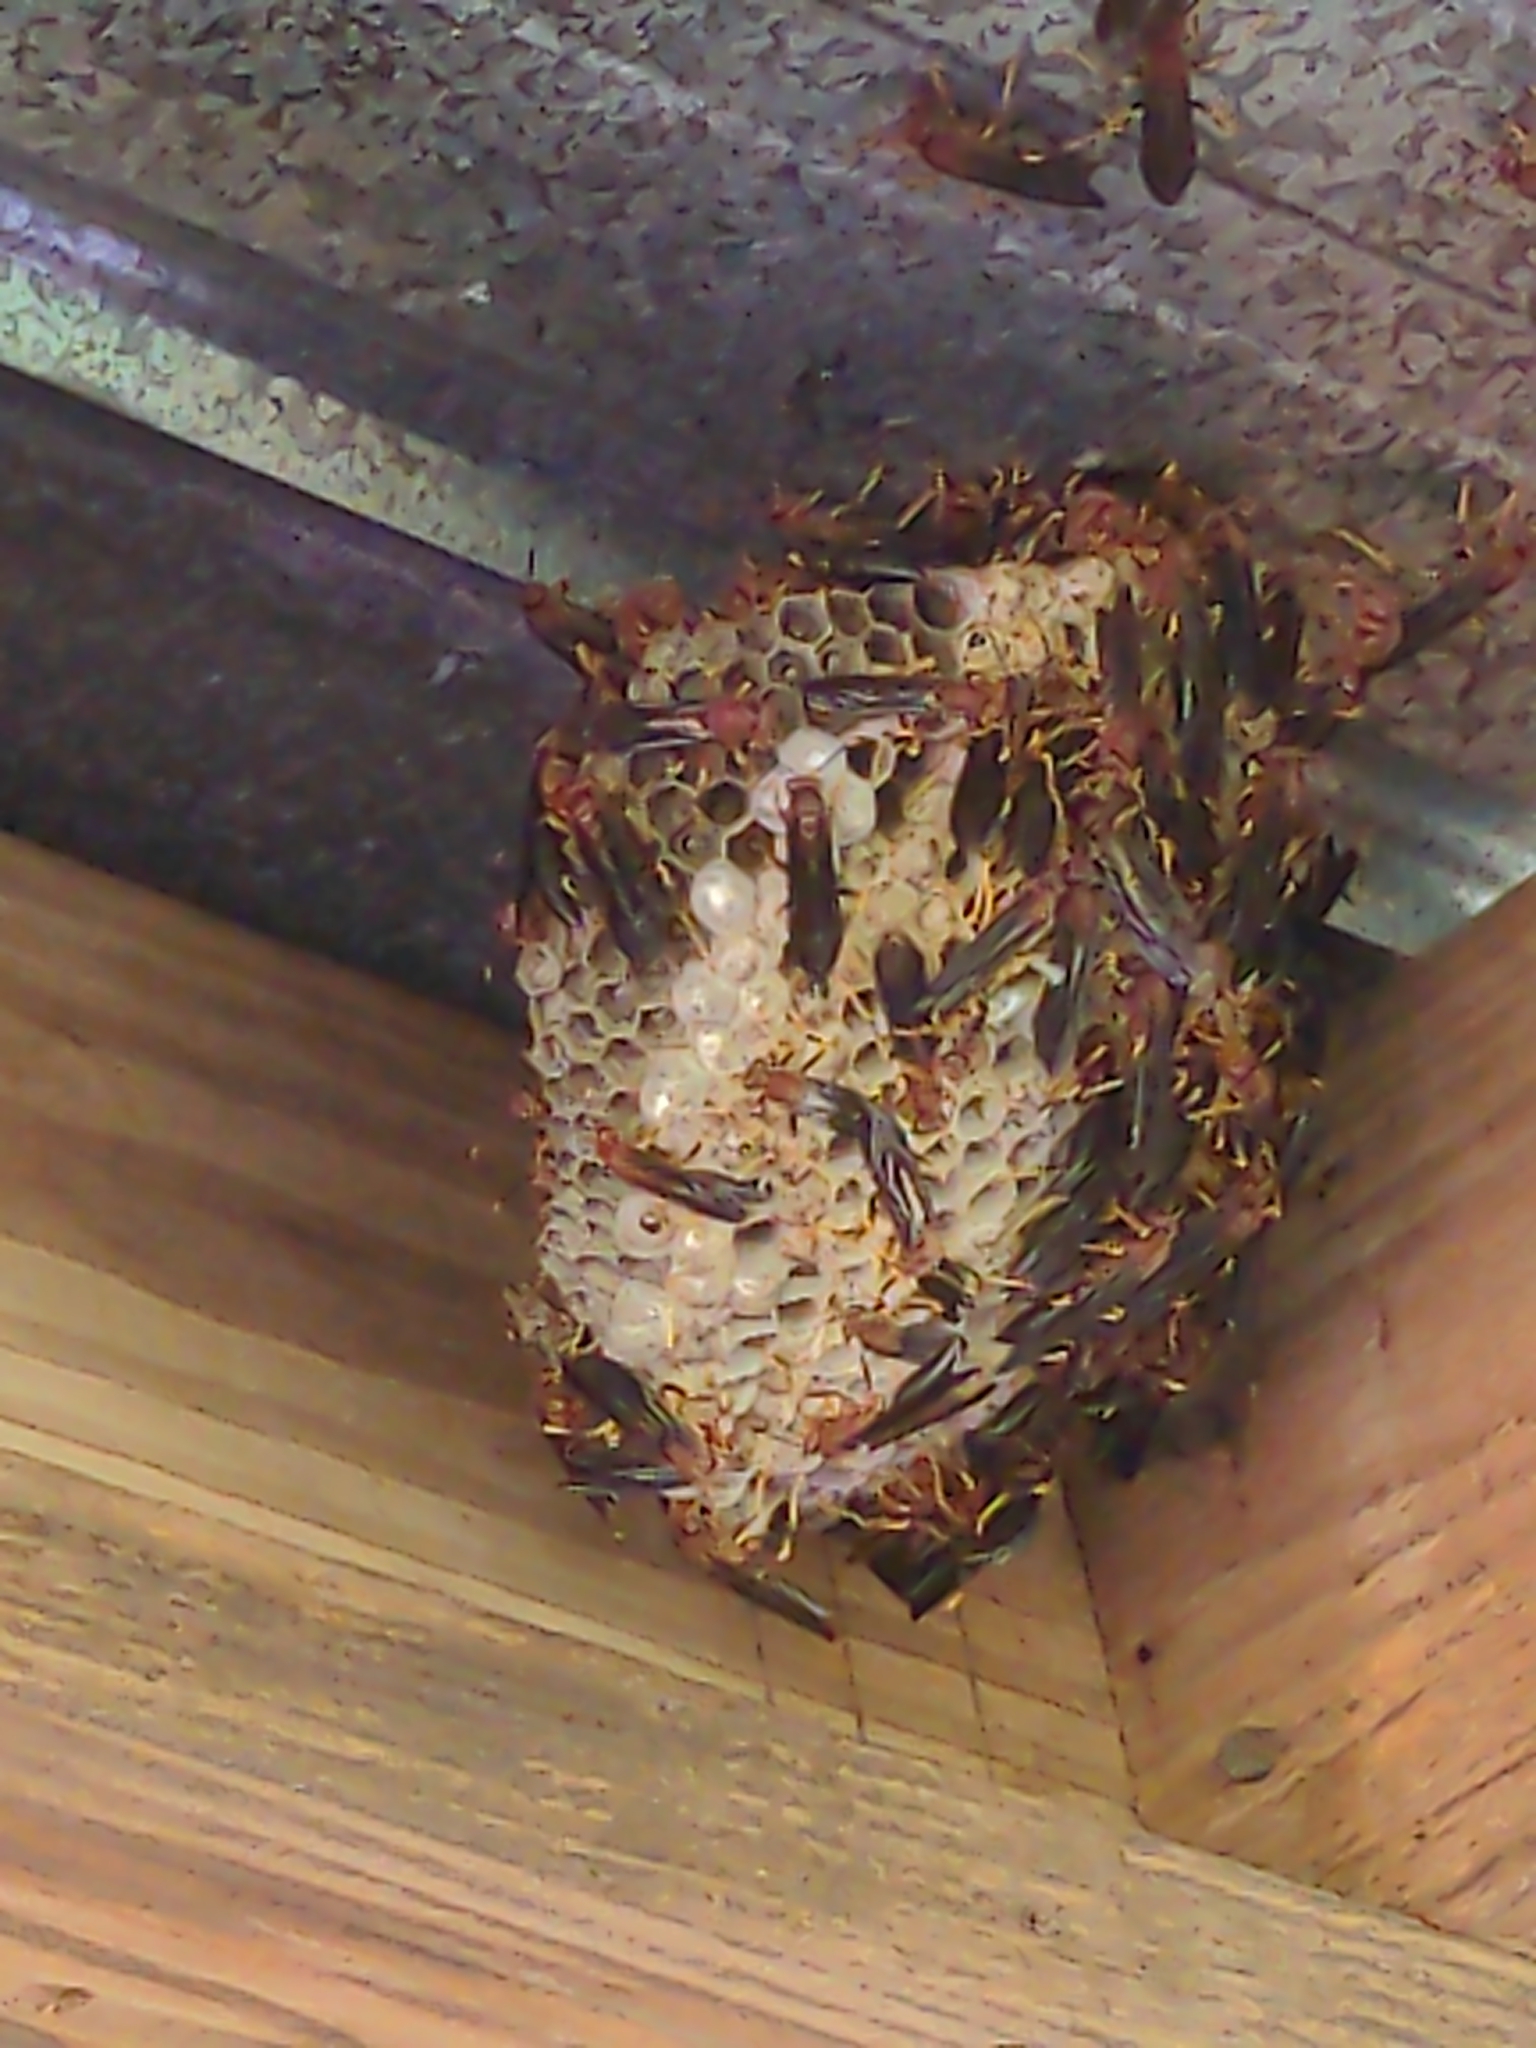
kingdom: Animalia
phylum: Arthropoda
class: Insecta
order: Hymenoptera
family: Eumenidae
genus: Polistes
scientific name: Polistes annularis
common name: Ringed paper wasp
